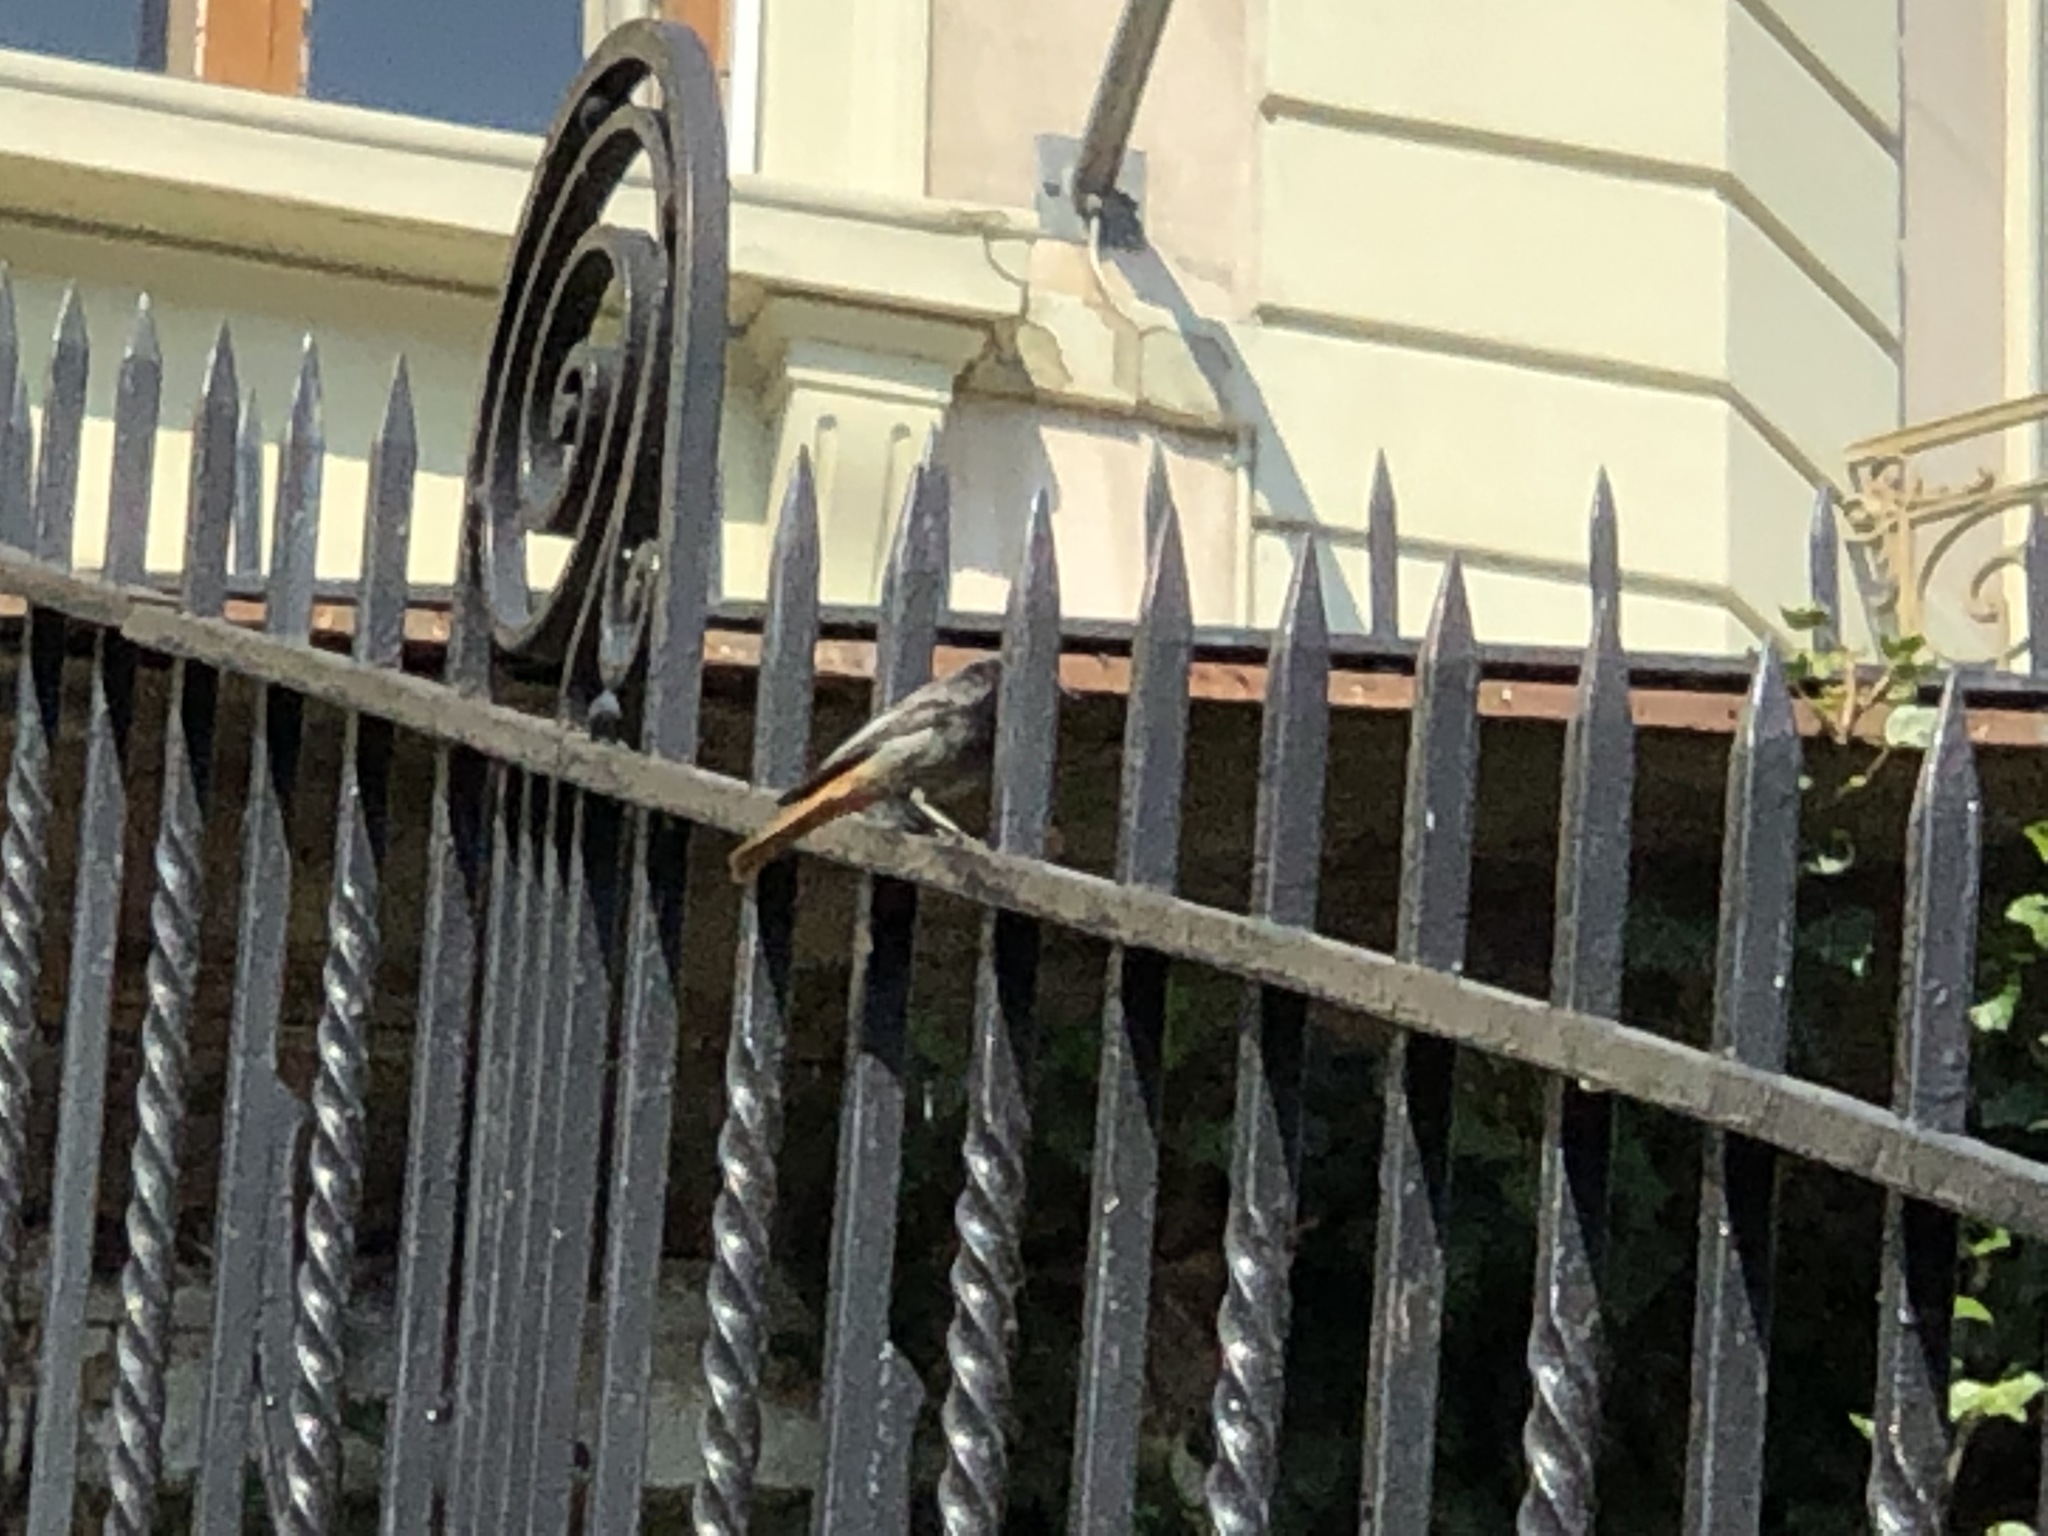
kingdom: Animalia
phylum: Chordata
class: Aves
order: Passeriformes
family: Muscicapidae
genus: Phoenicurus
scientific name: Phoenicurus ochruros
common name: Black redstart
